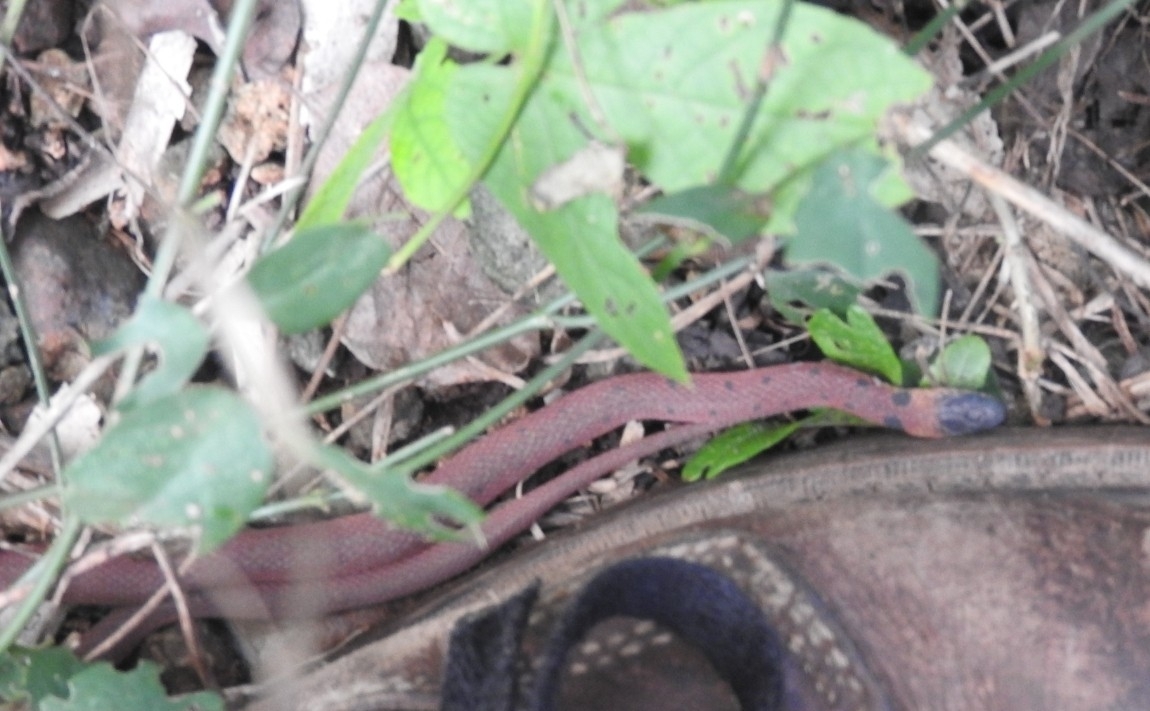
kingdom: Animalia
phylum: Chordata
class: Squamata
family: Colubridae
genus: Ninia
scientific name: Ninia sebae
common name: Redback coffee snake
